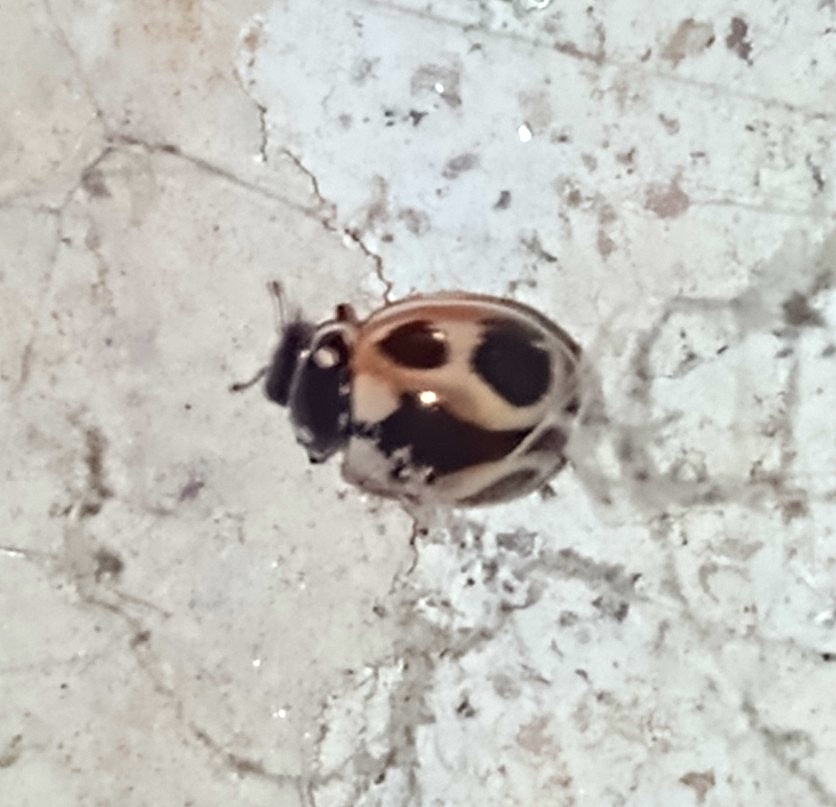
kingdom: Animalia
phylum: Arthropoda
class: Insecta
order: Coleoptera
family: Coccinellidae
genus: Cycloneda
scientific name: Cycloneda ancoralis
